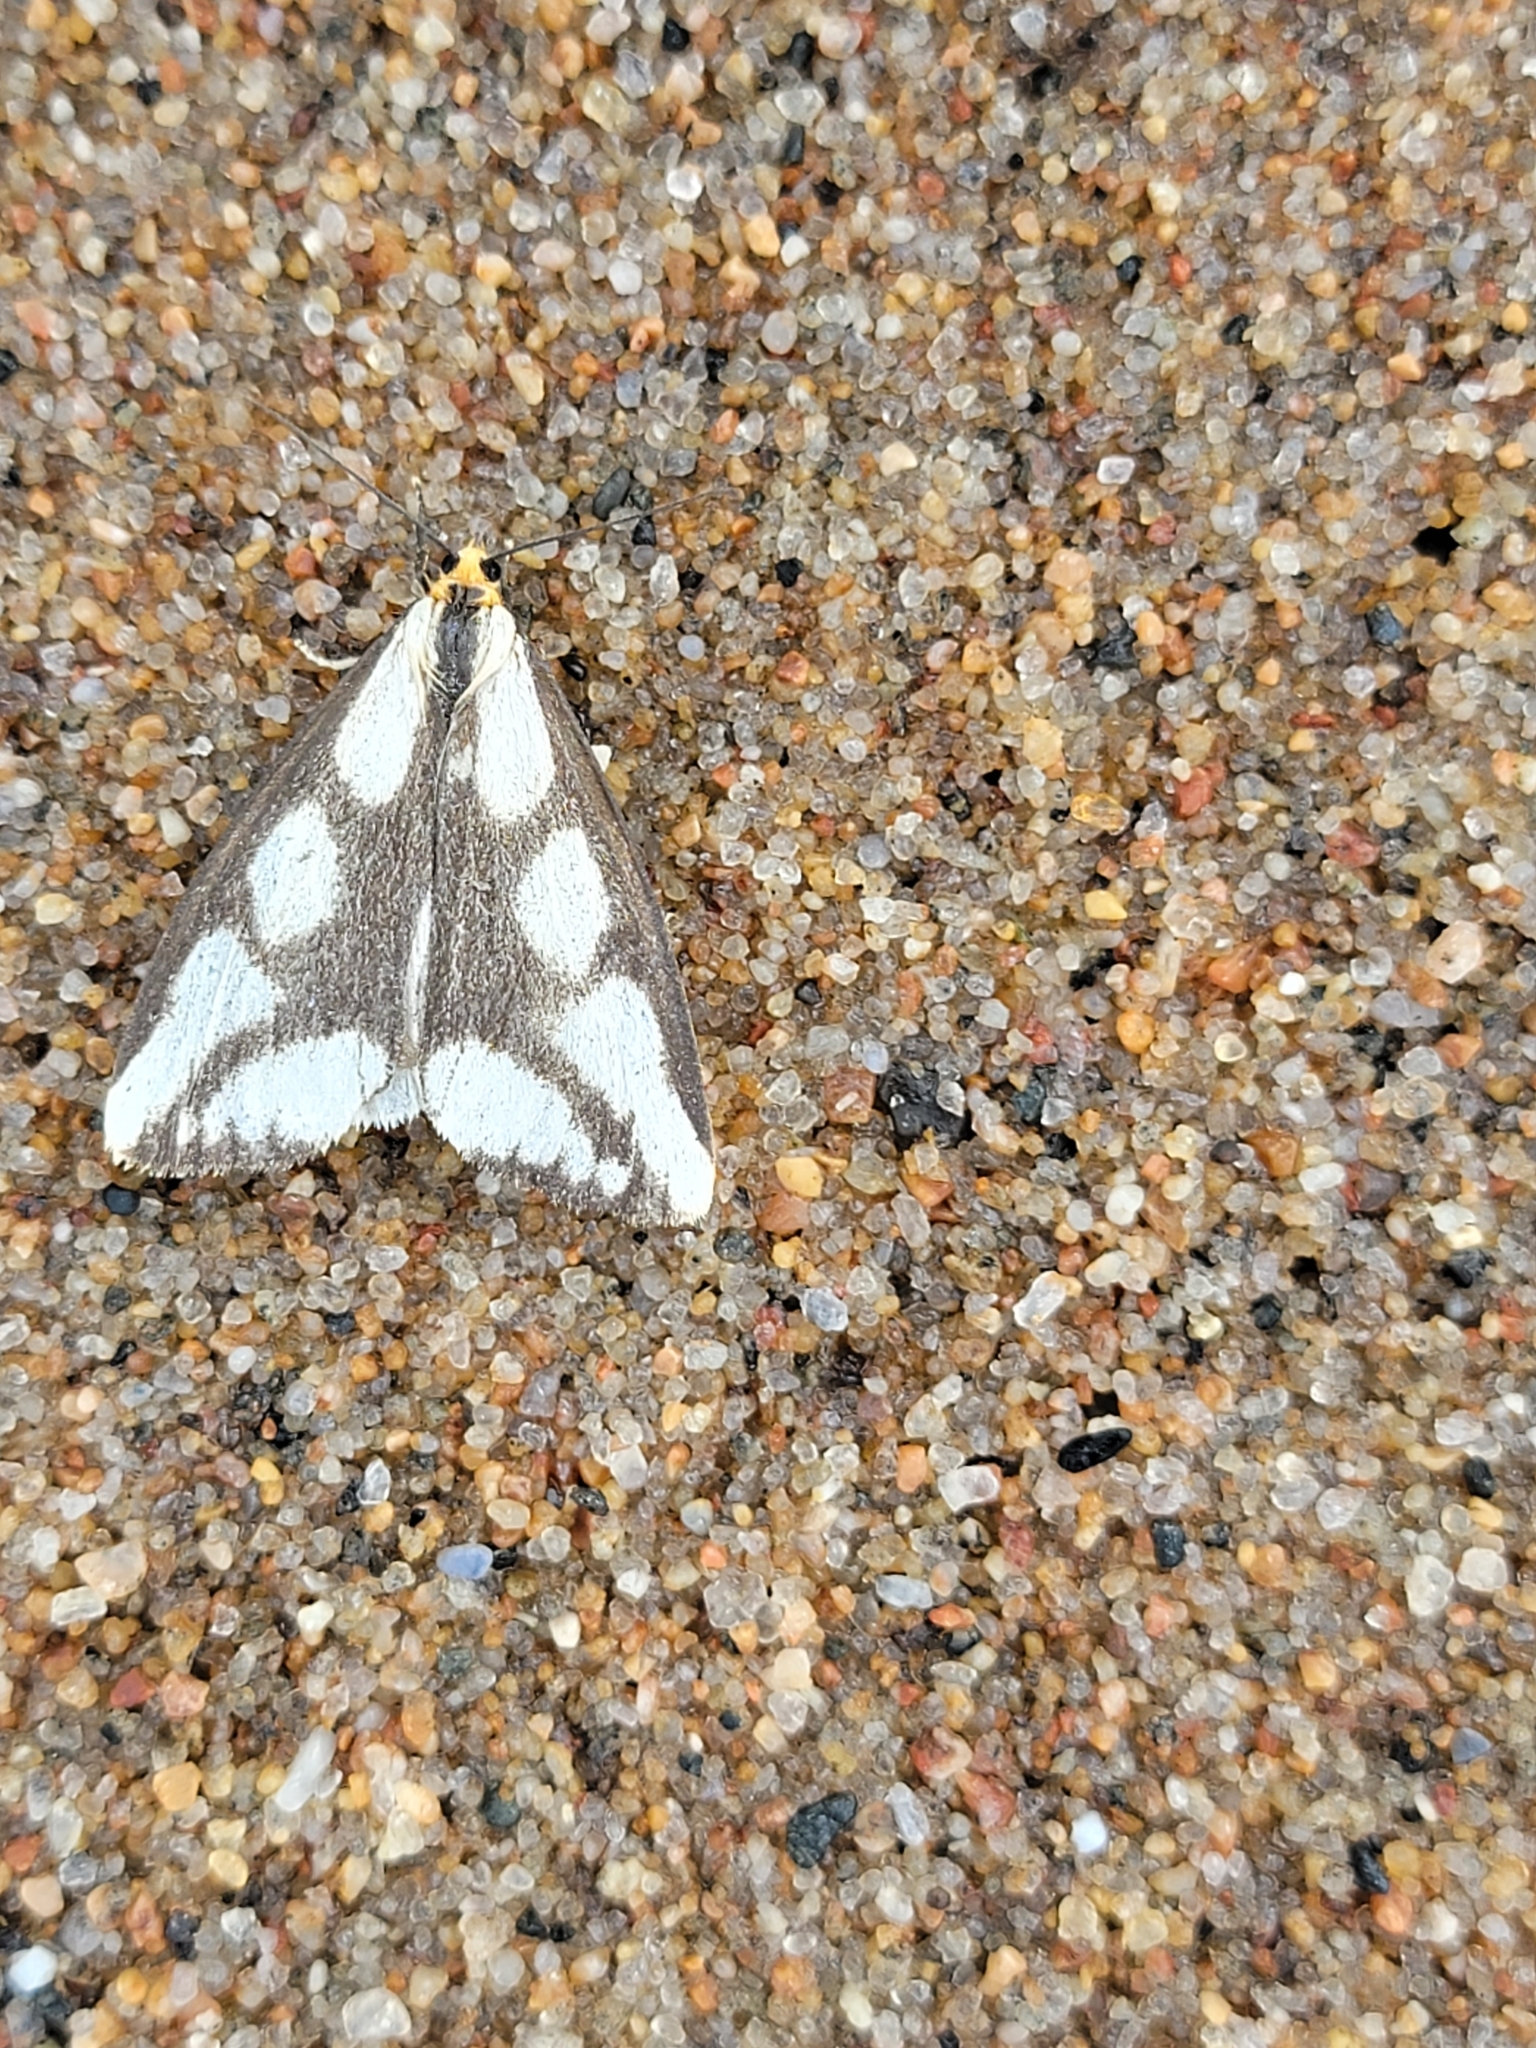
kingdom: Animalia
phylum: Arthropoda
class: Insecta
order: Lepidoptera
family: Erebidae
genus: Haploa
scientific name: Haploa lecontei
